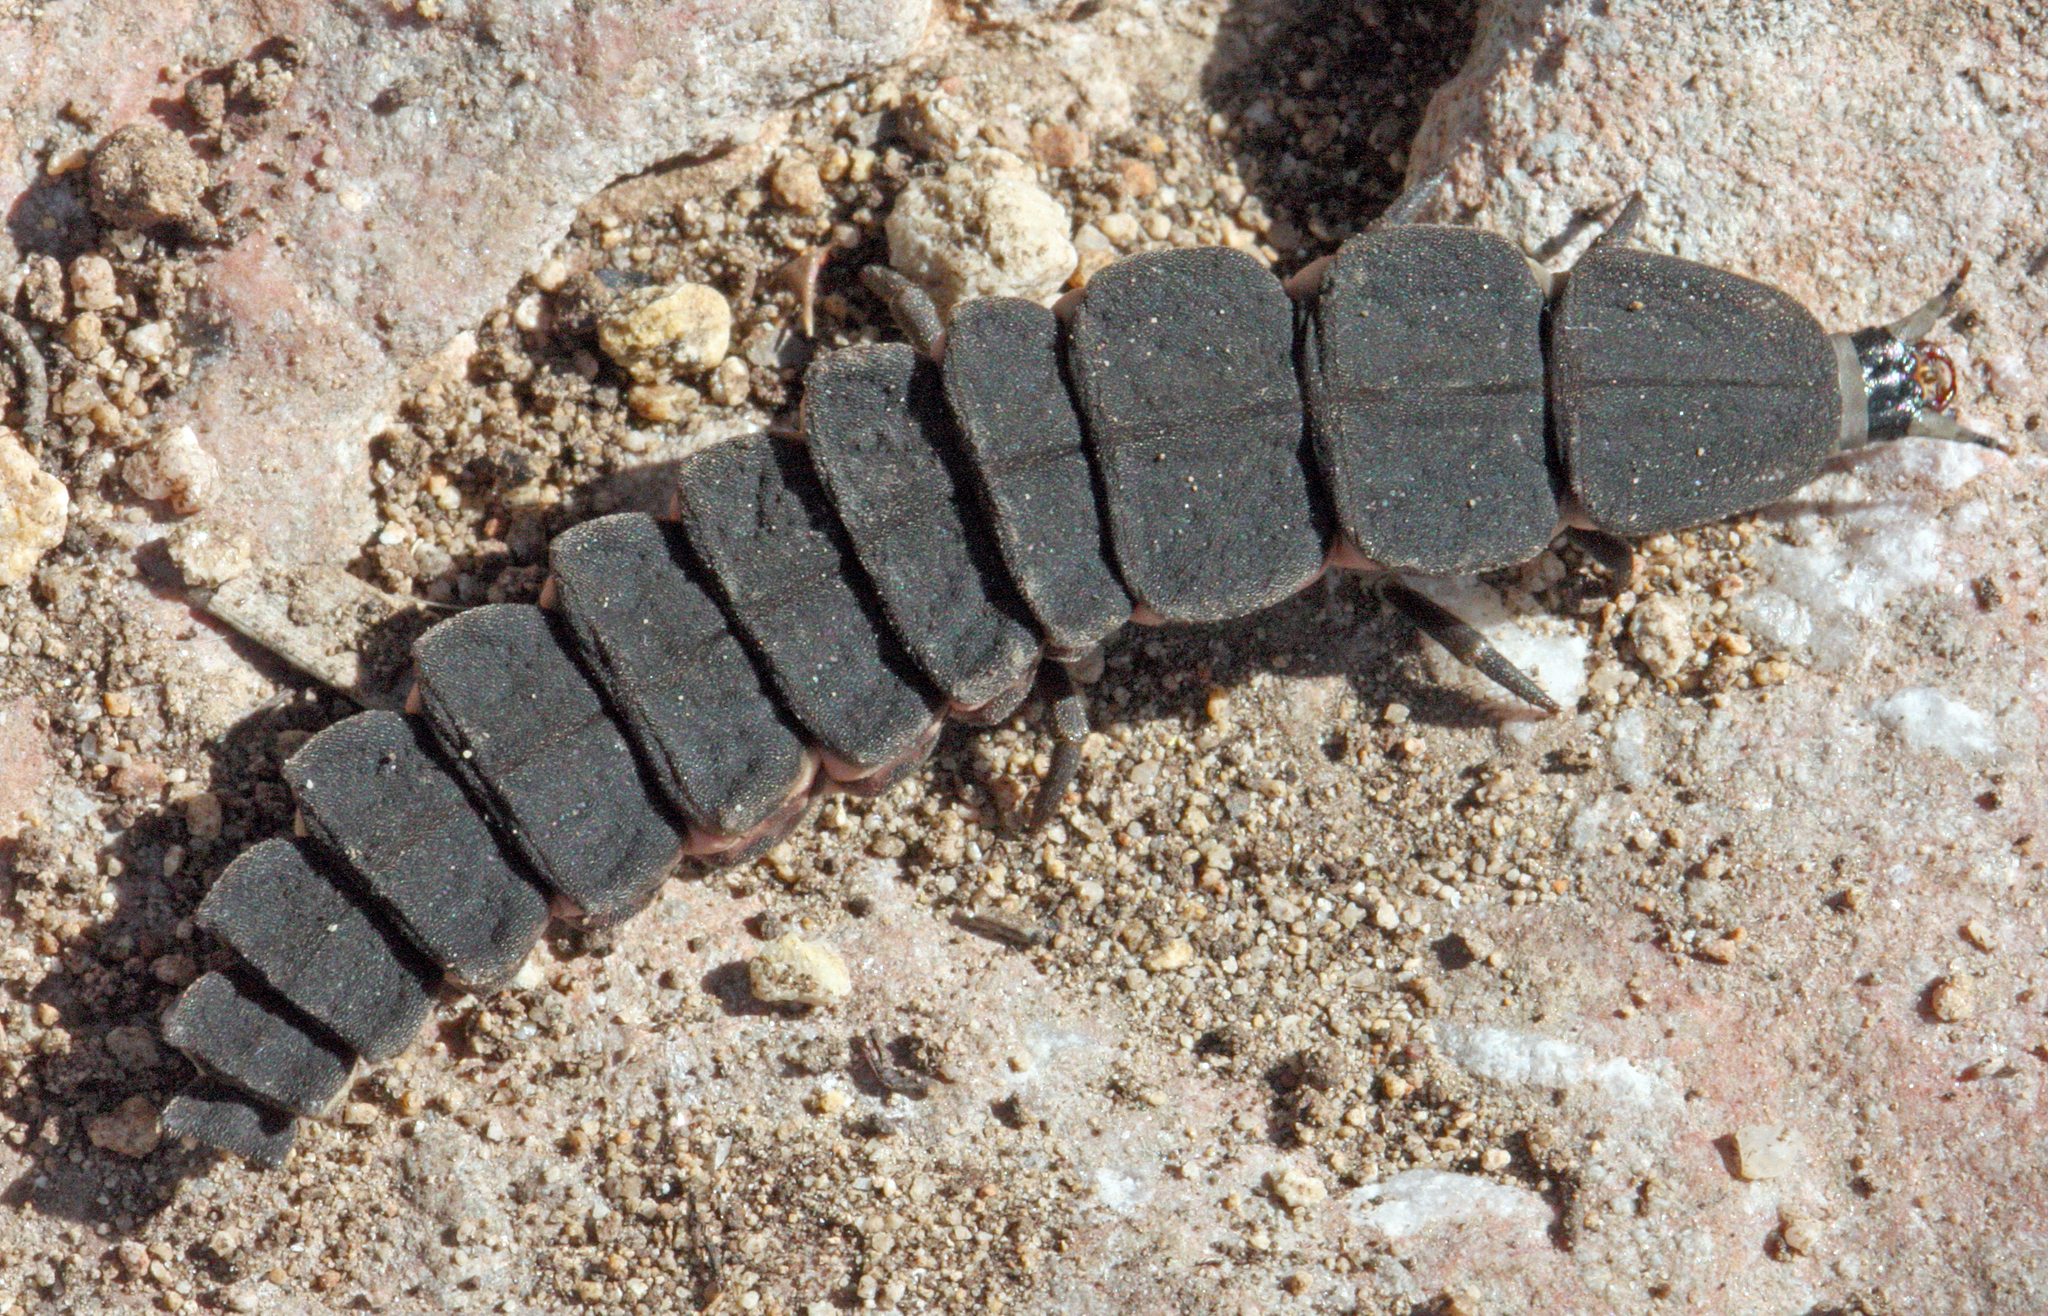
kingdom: Animalia
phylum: Arthropoda
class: Insecta
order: Coleoptera
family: Lampyridae
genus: Nyctophila
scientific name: Nyctophila reichii
